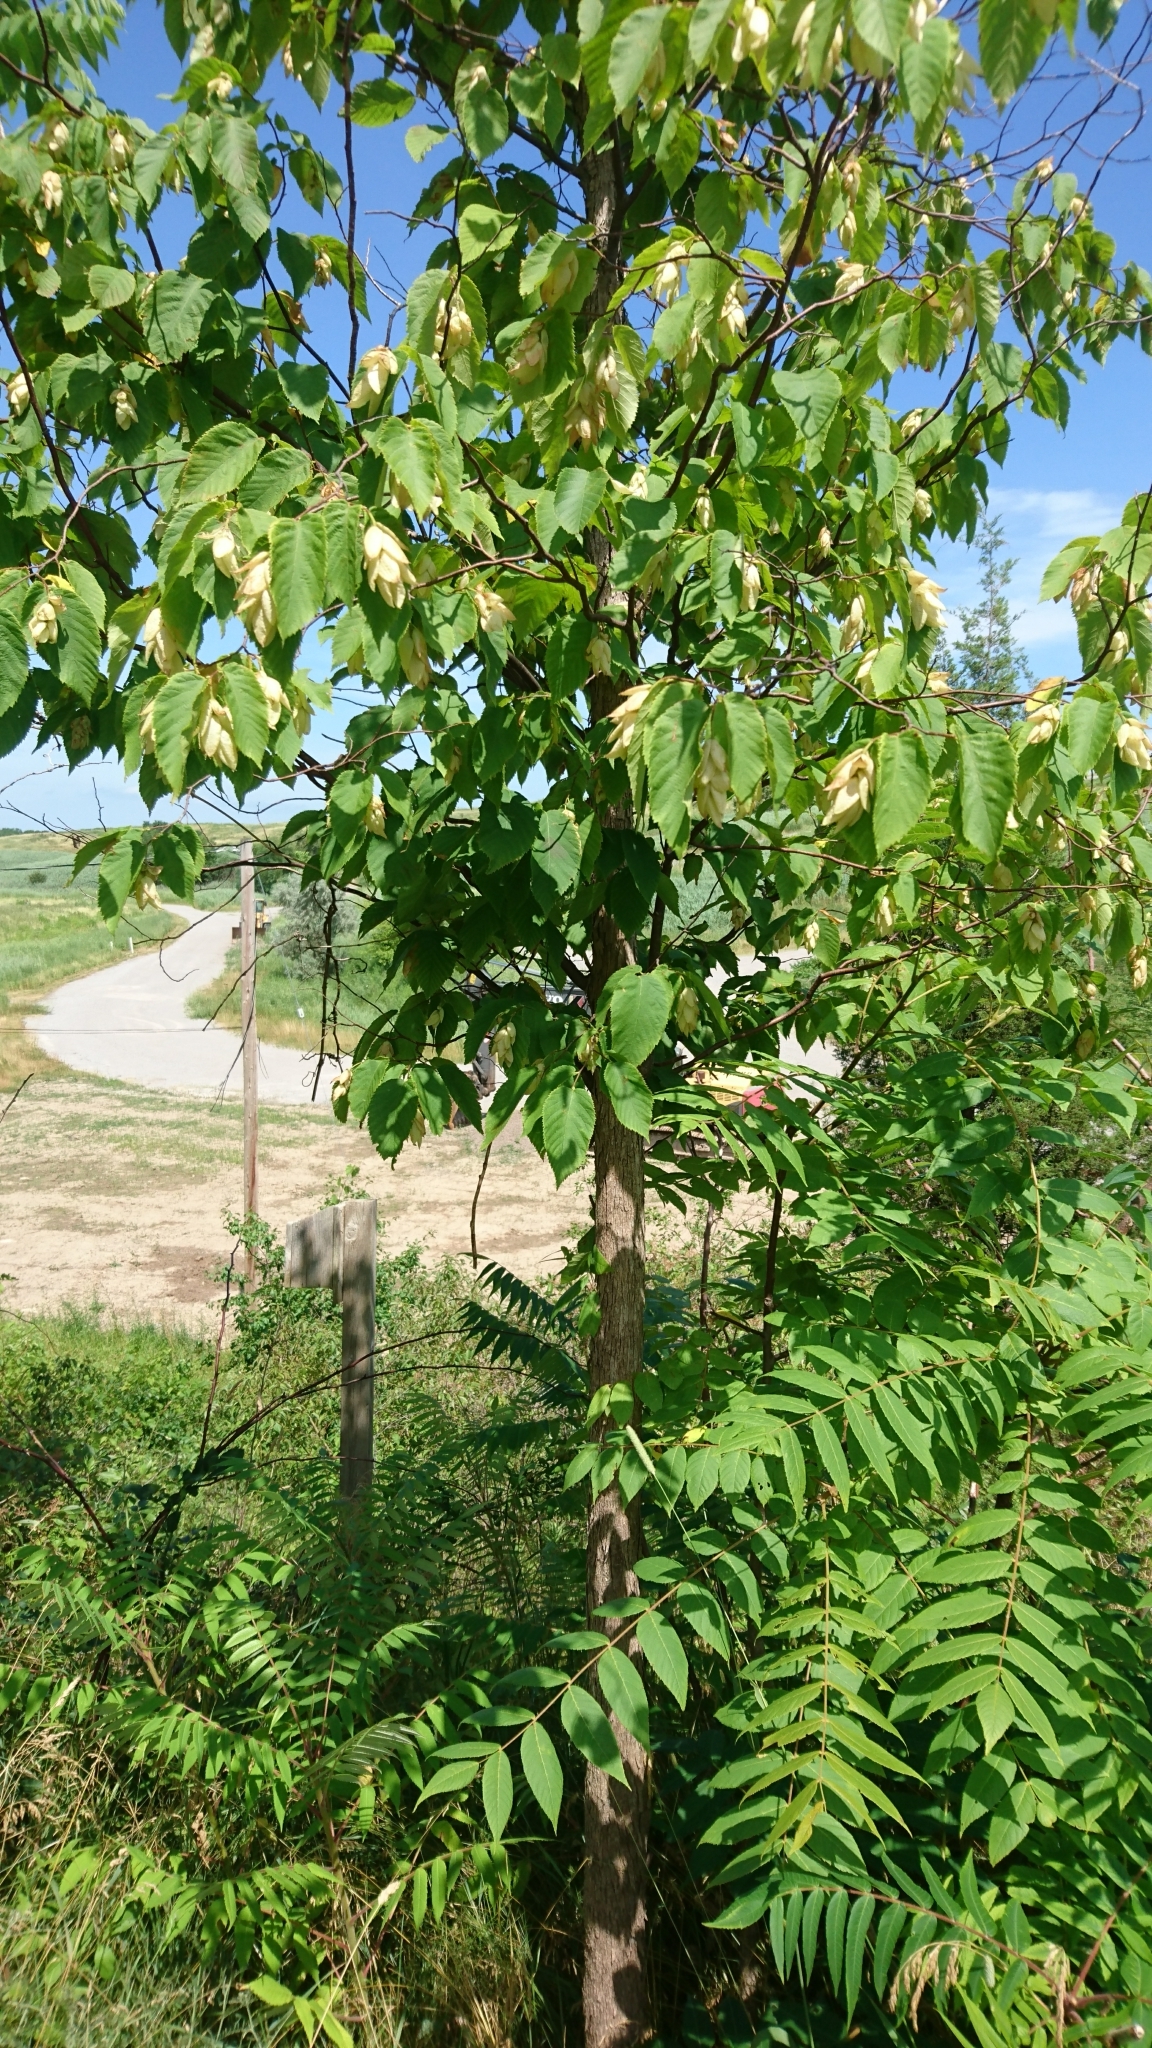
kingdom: Plantae
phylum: Tracheophyta
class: Magnoliopsida
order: Fagales
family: Betulaceae
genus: Ostrya
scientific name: Ostrya virginiana
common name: Ironwood
